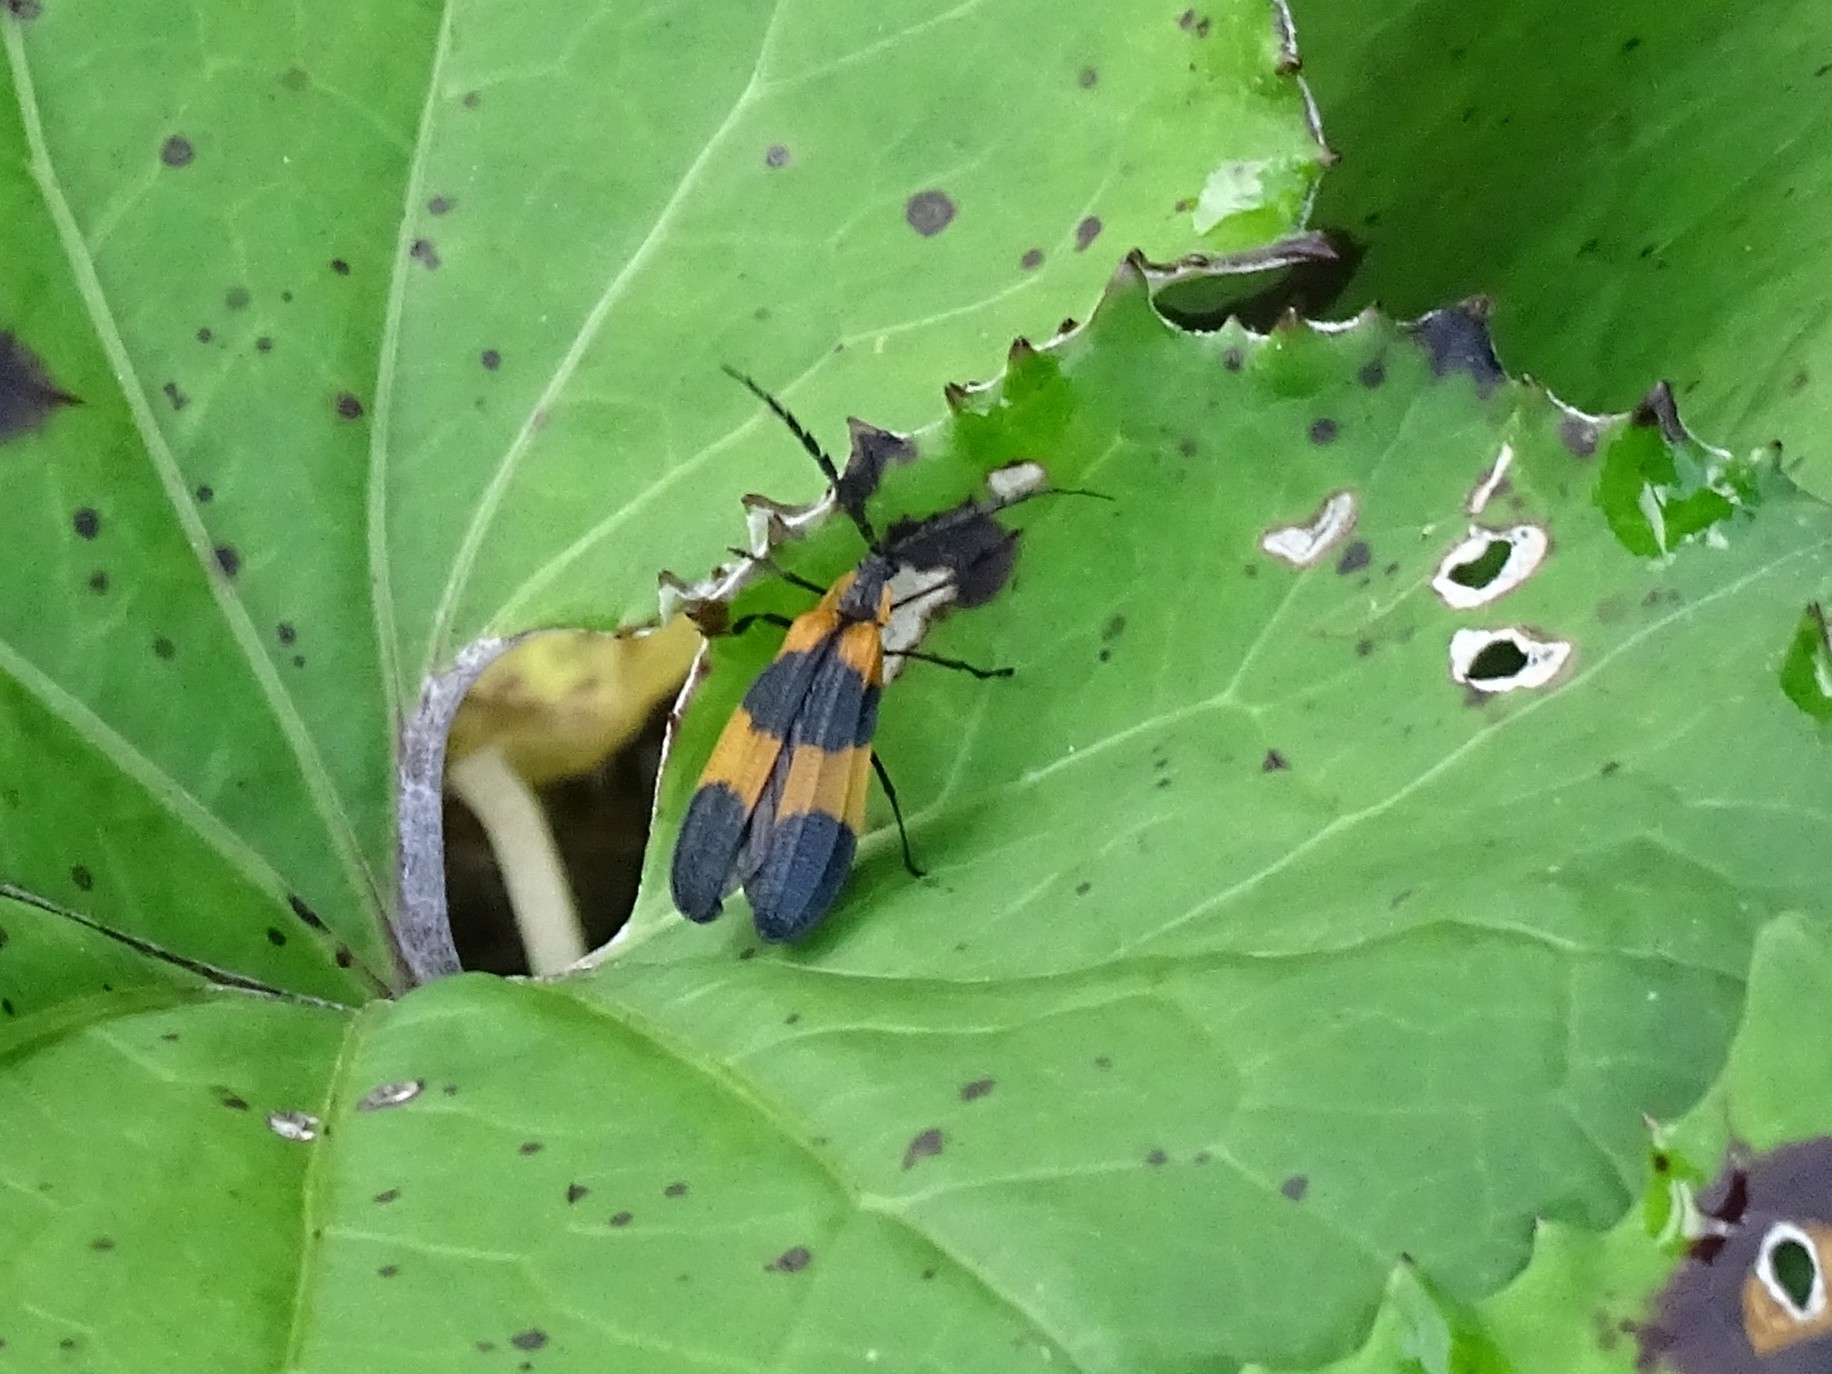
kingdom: Animalia
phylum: Arthropoda
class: Insecta
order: Coleoptera
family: Lycidae
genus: Calopteron
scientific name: Calopteron reticulatum
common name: Banded net-winged beetle
